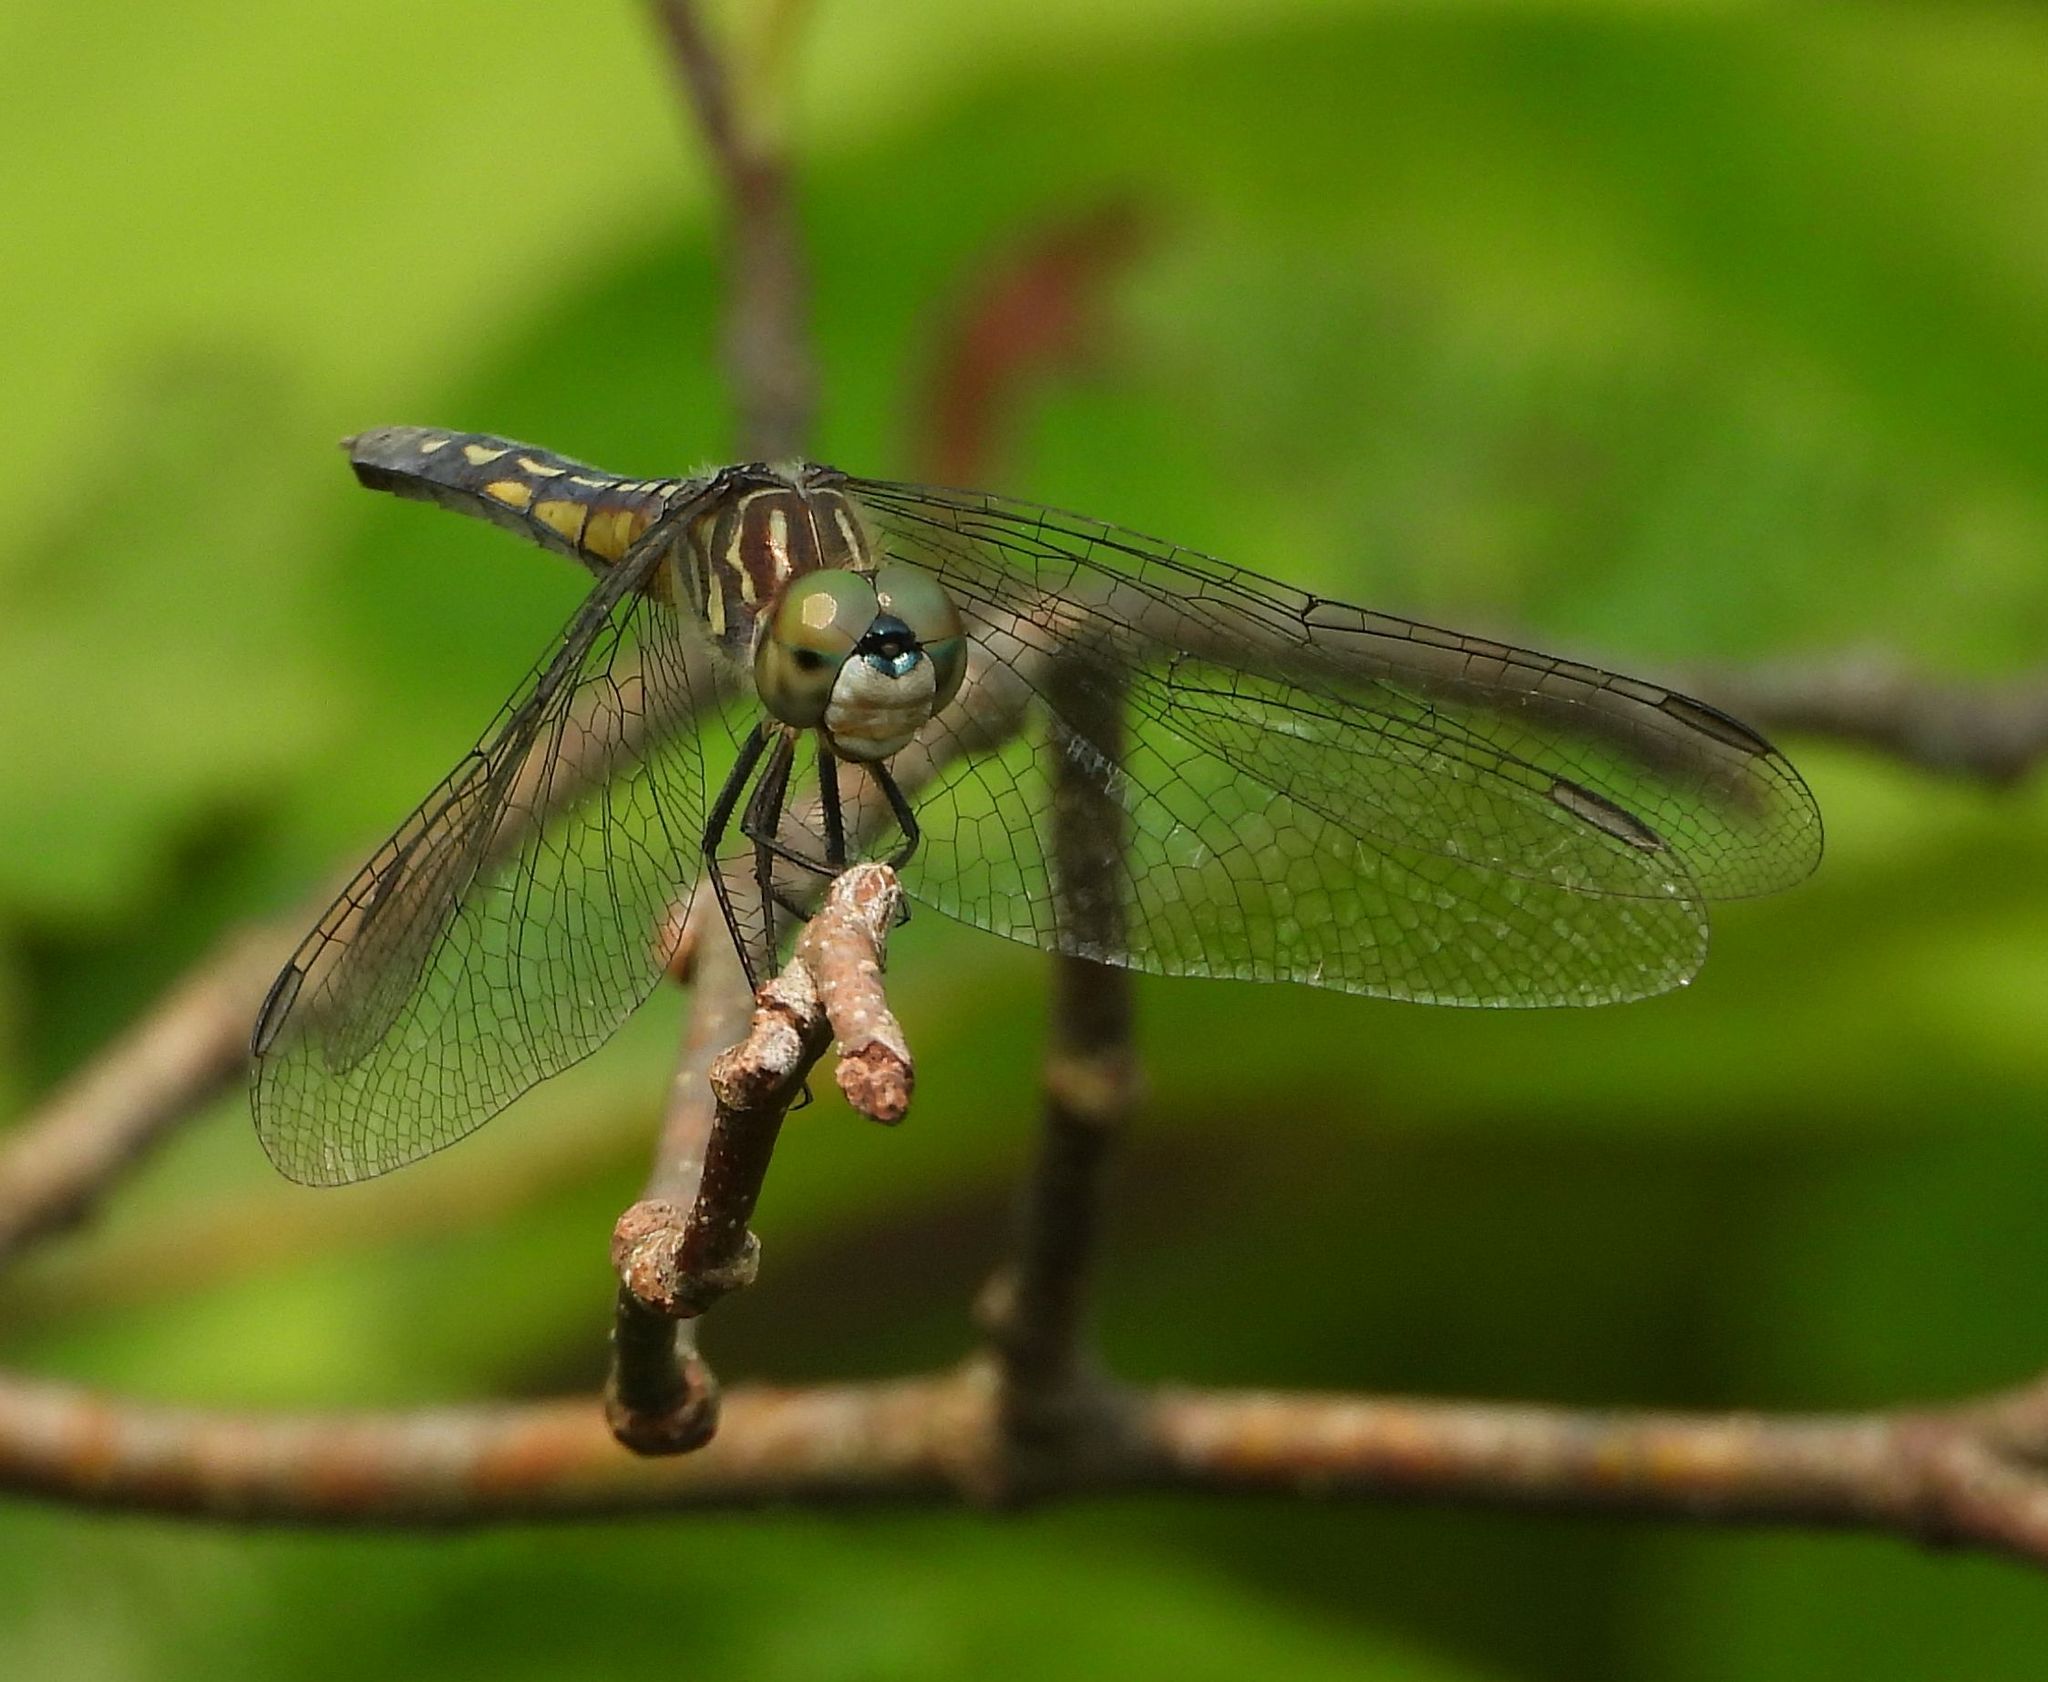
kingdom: Animalia
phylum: Arthropoda
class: Insecta
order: Odonata
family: Libellulidae
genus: Pachydiplax
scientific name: Pachydiplax longipennis
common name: Blue dasher
